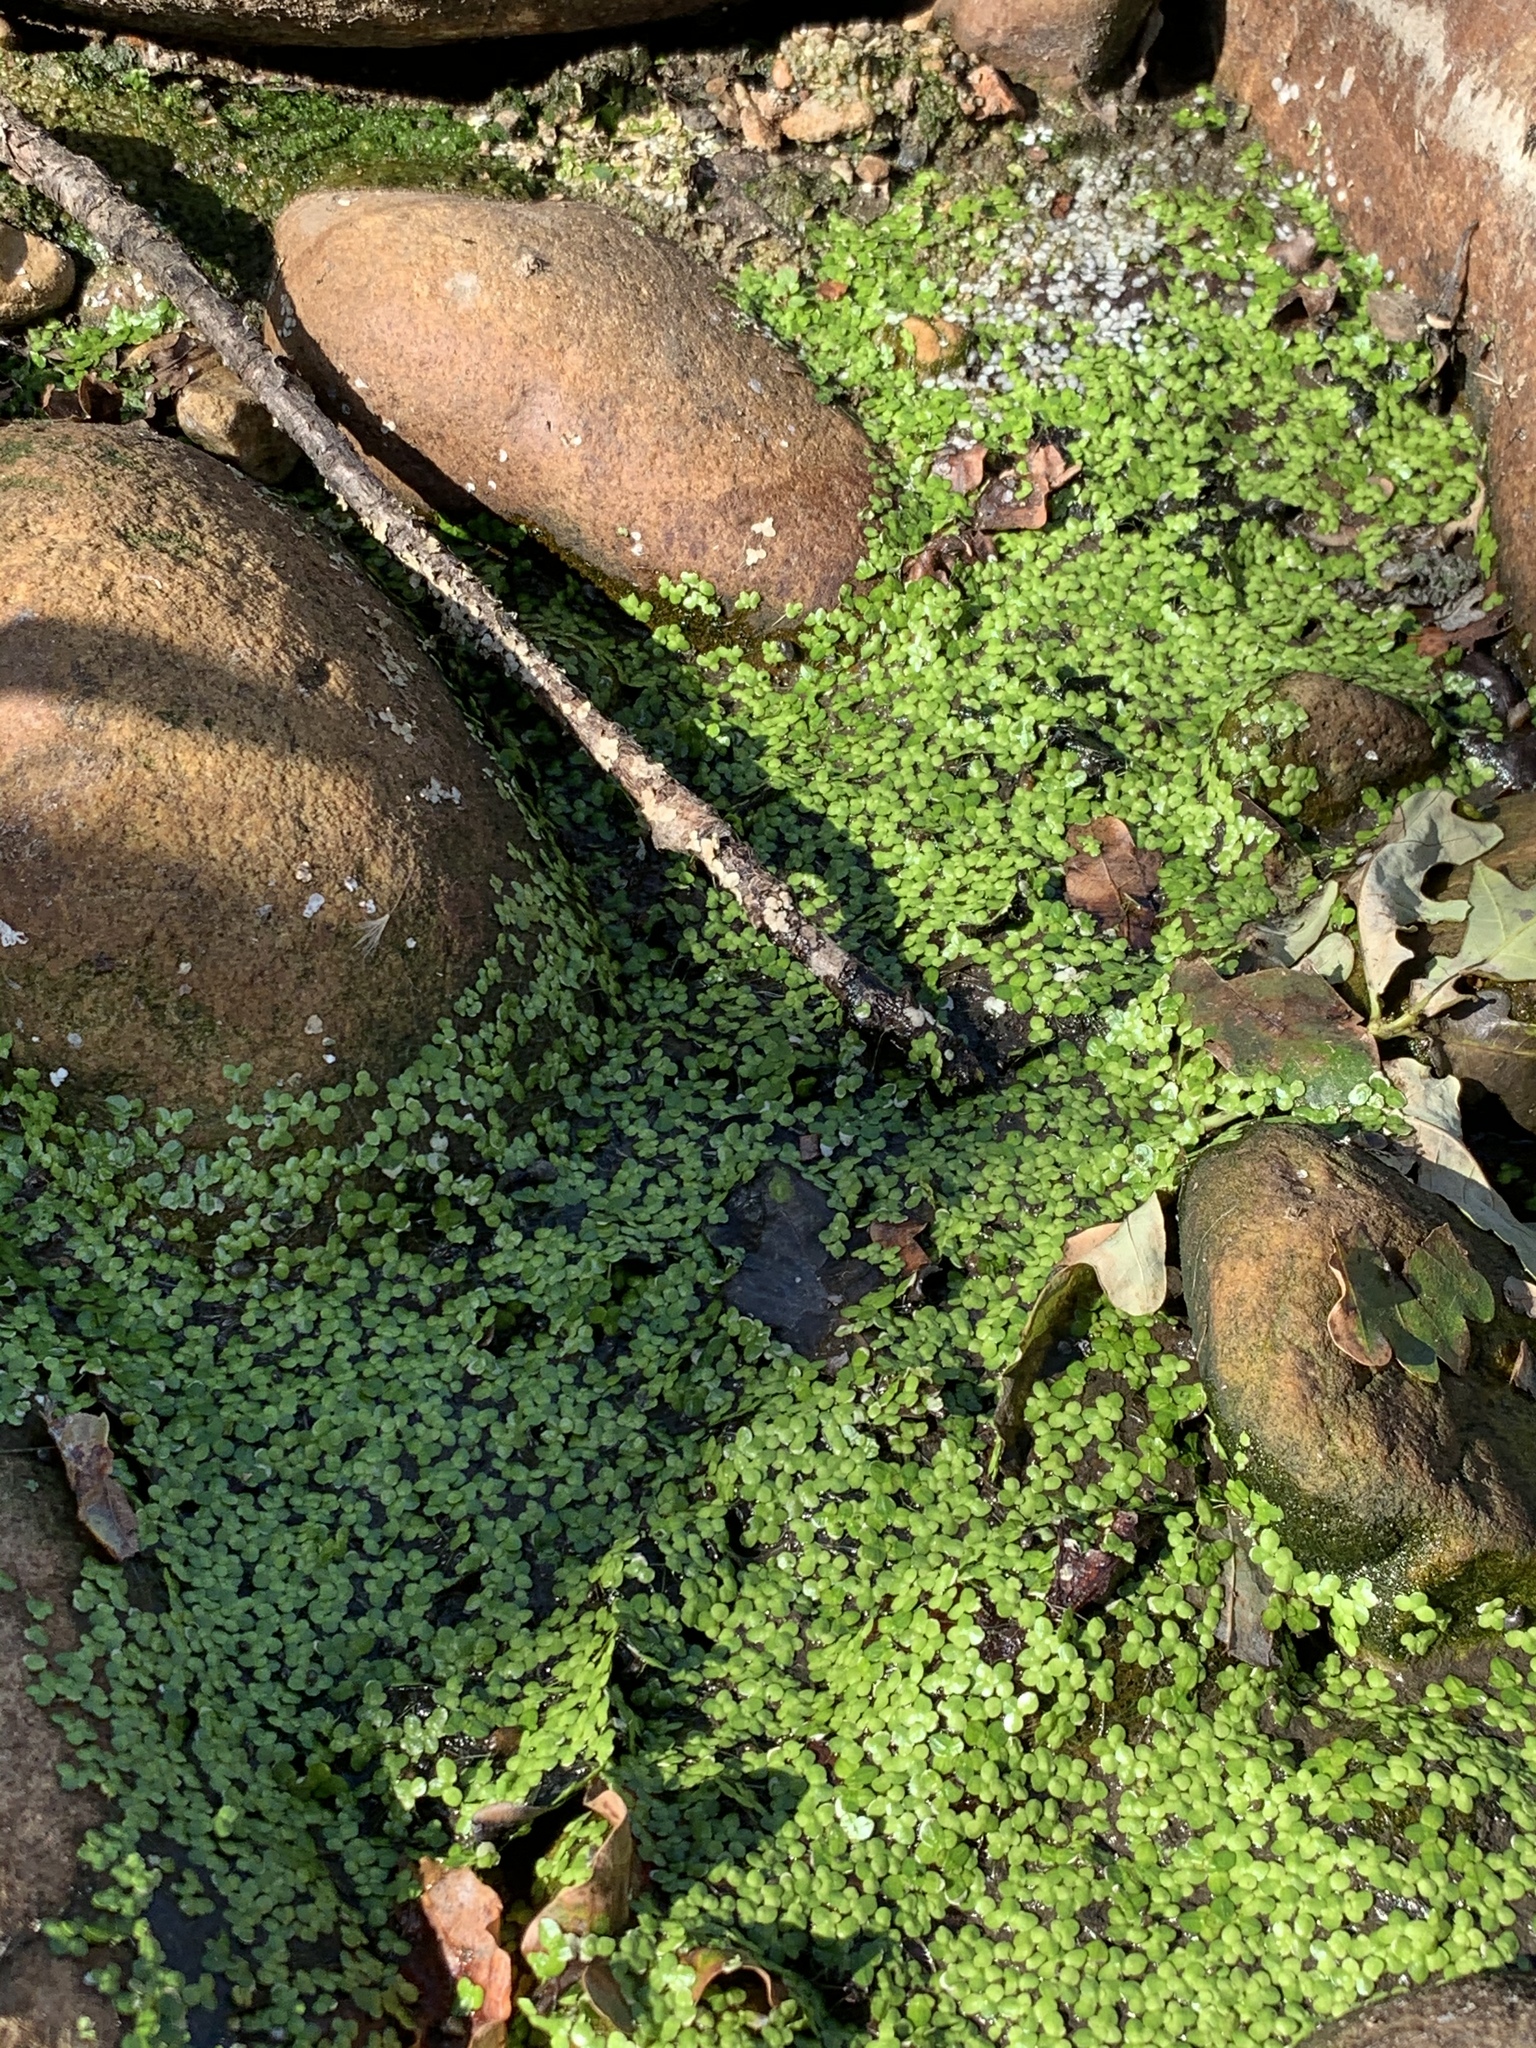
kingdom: Plantae
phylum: Tracheophyta
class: Liliopsida
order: Alismatales
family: Araceae
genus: Lemna
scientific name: Lemna minor
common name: Common duckweed
